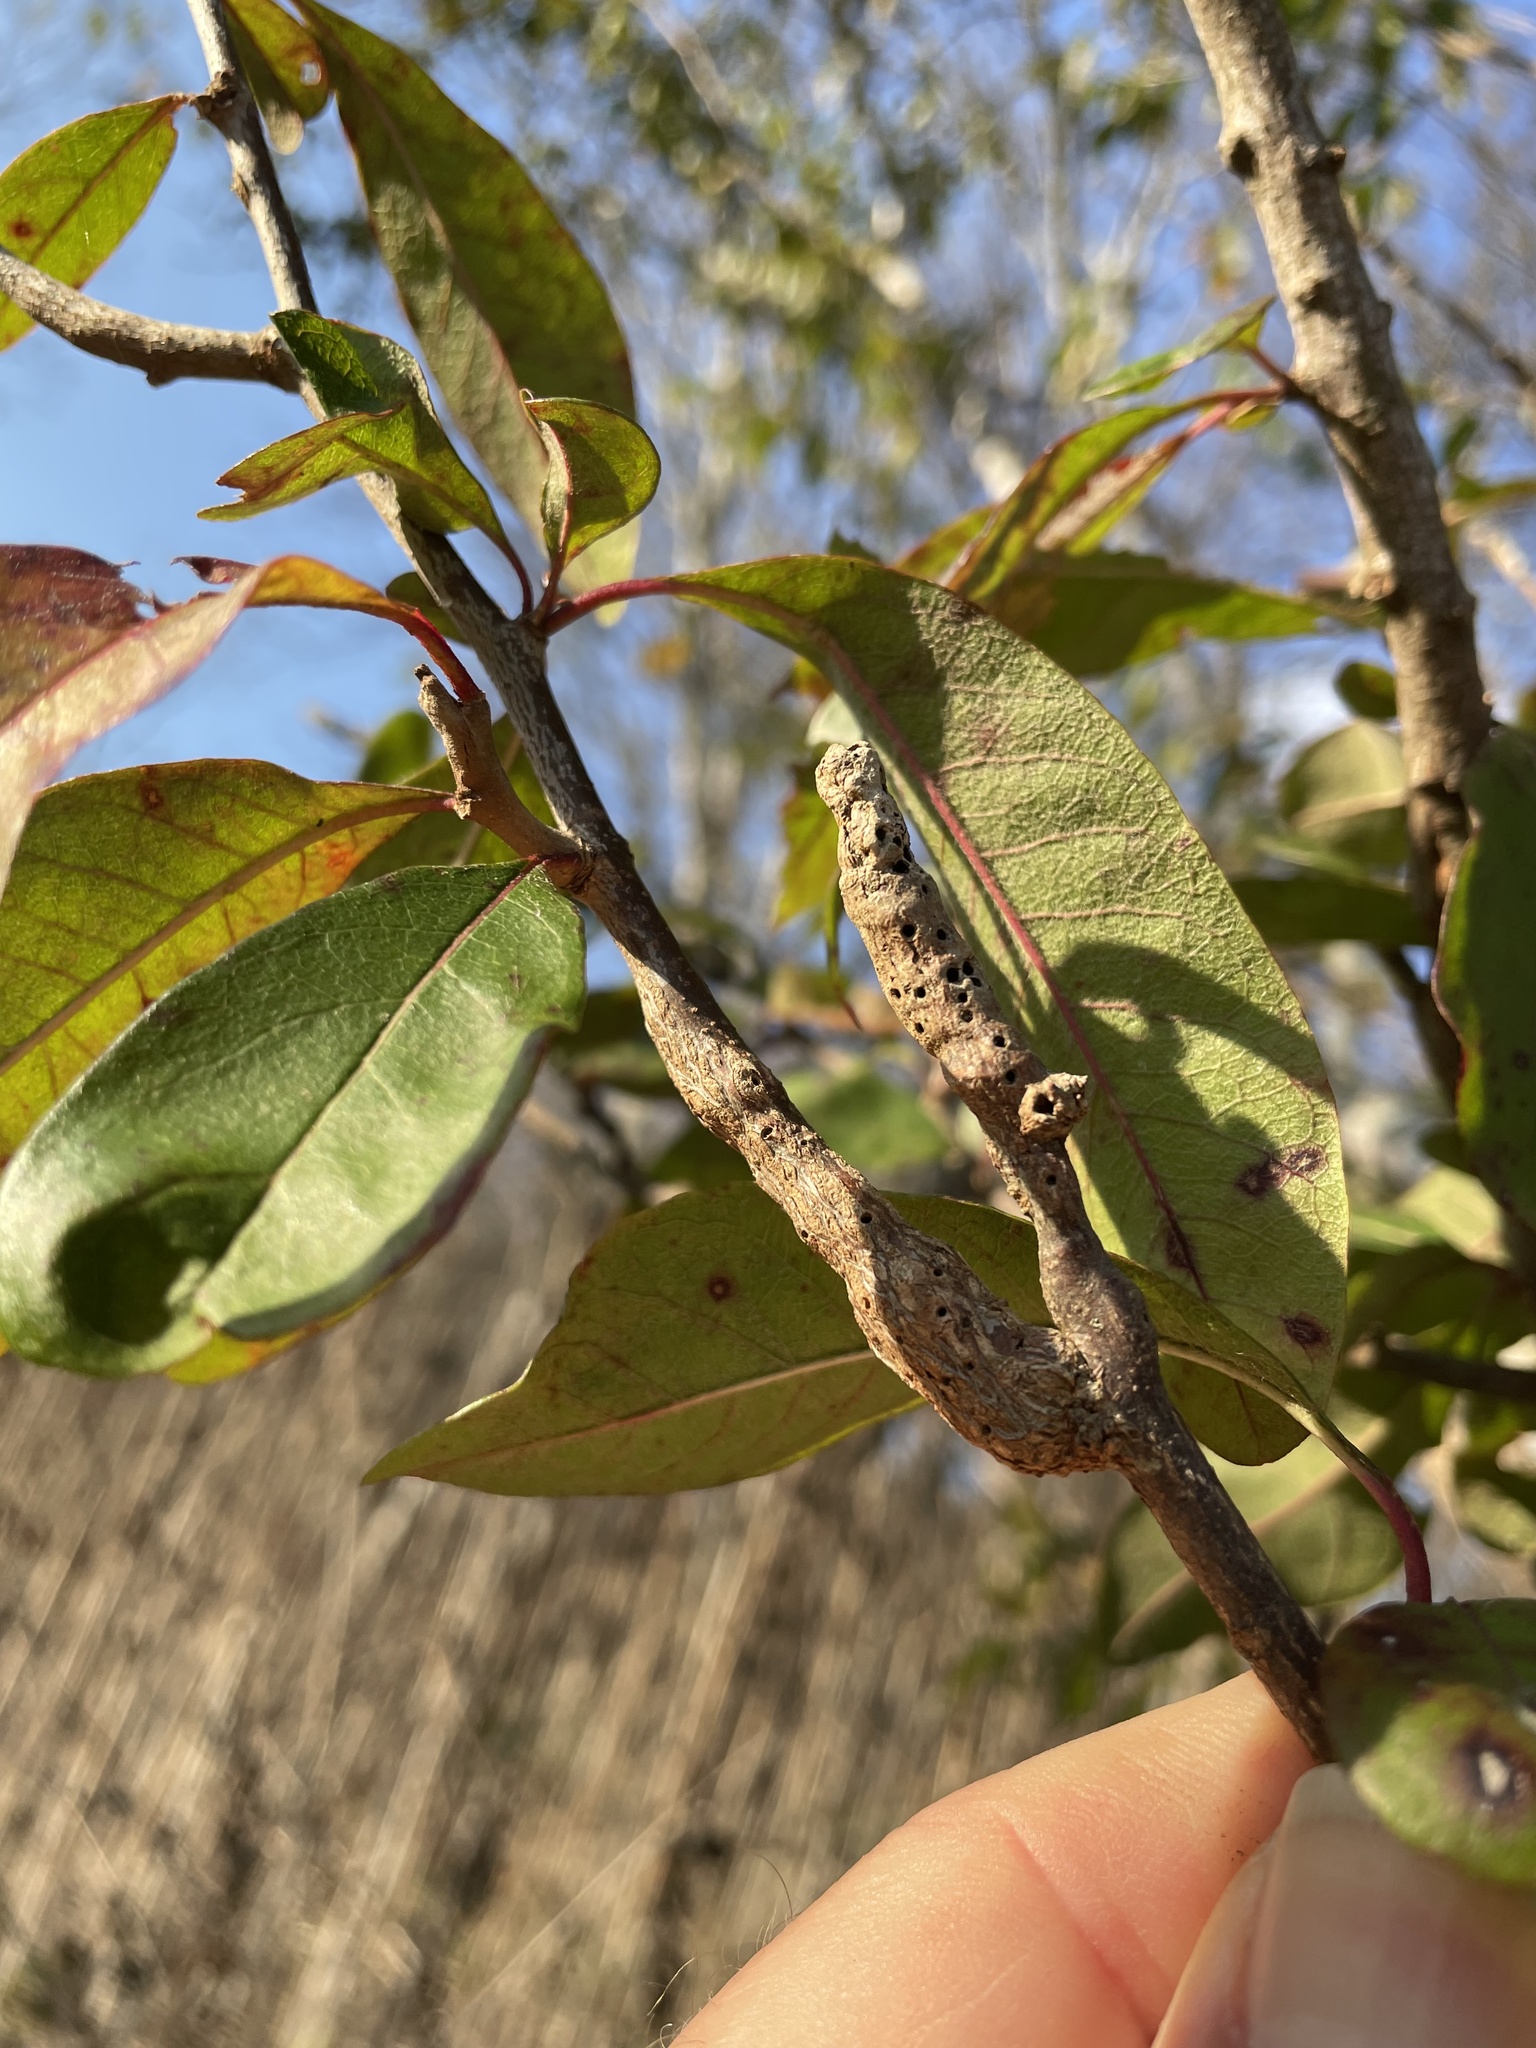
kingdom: Animalia
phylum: Arthropoda
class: Insecta
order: Diptera
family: Cecidomyiidae
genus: Bruggmanniella
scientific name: Bruggmanniella bumeliae
